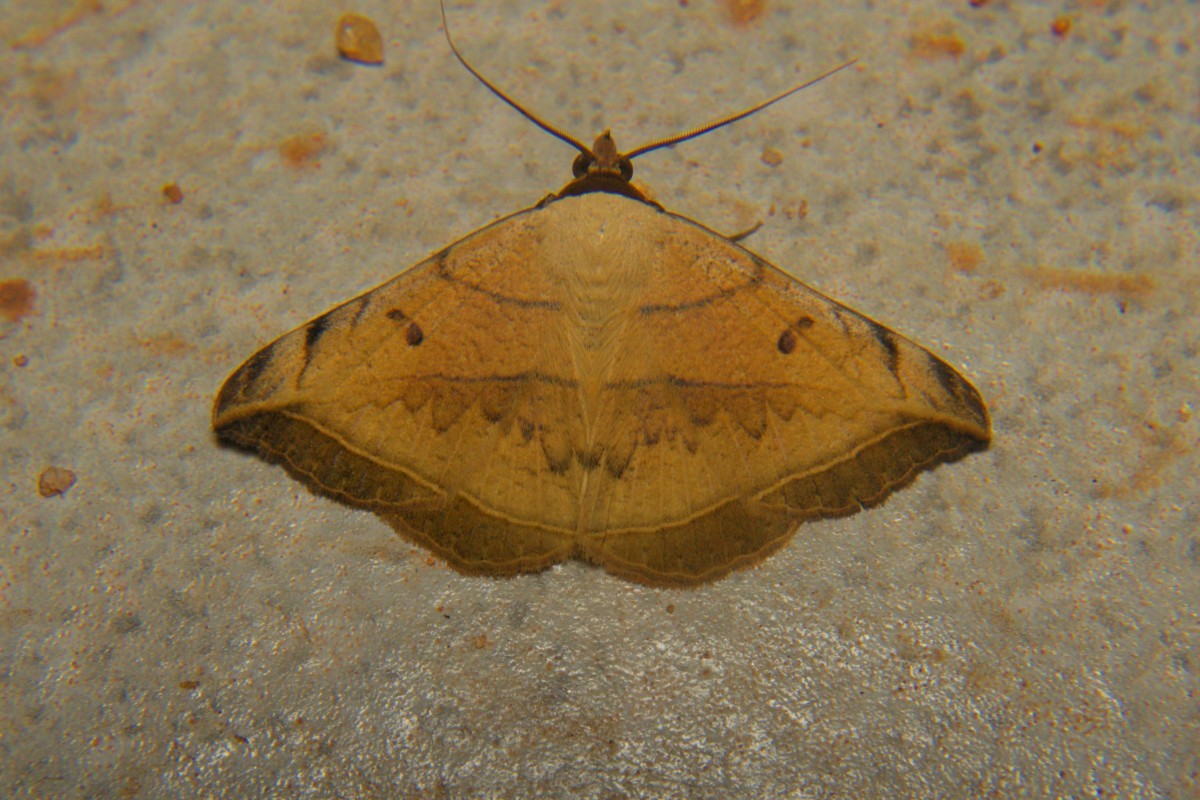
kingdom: Animalia
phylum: Arthropoda
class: Insecta
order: Lepidoptera
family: Erebidae
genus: Entomogramma
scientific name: Entomogramma mediocris
